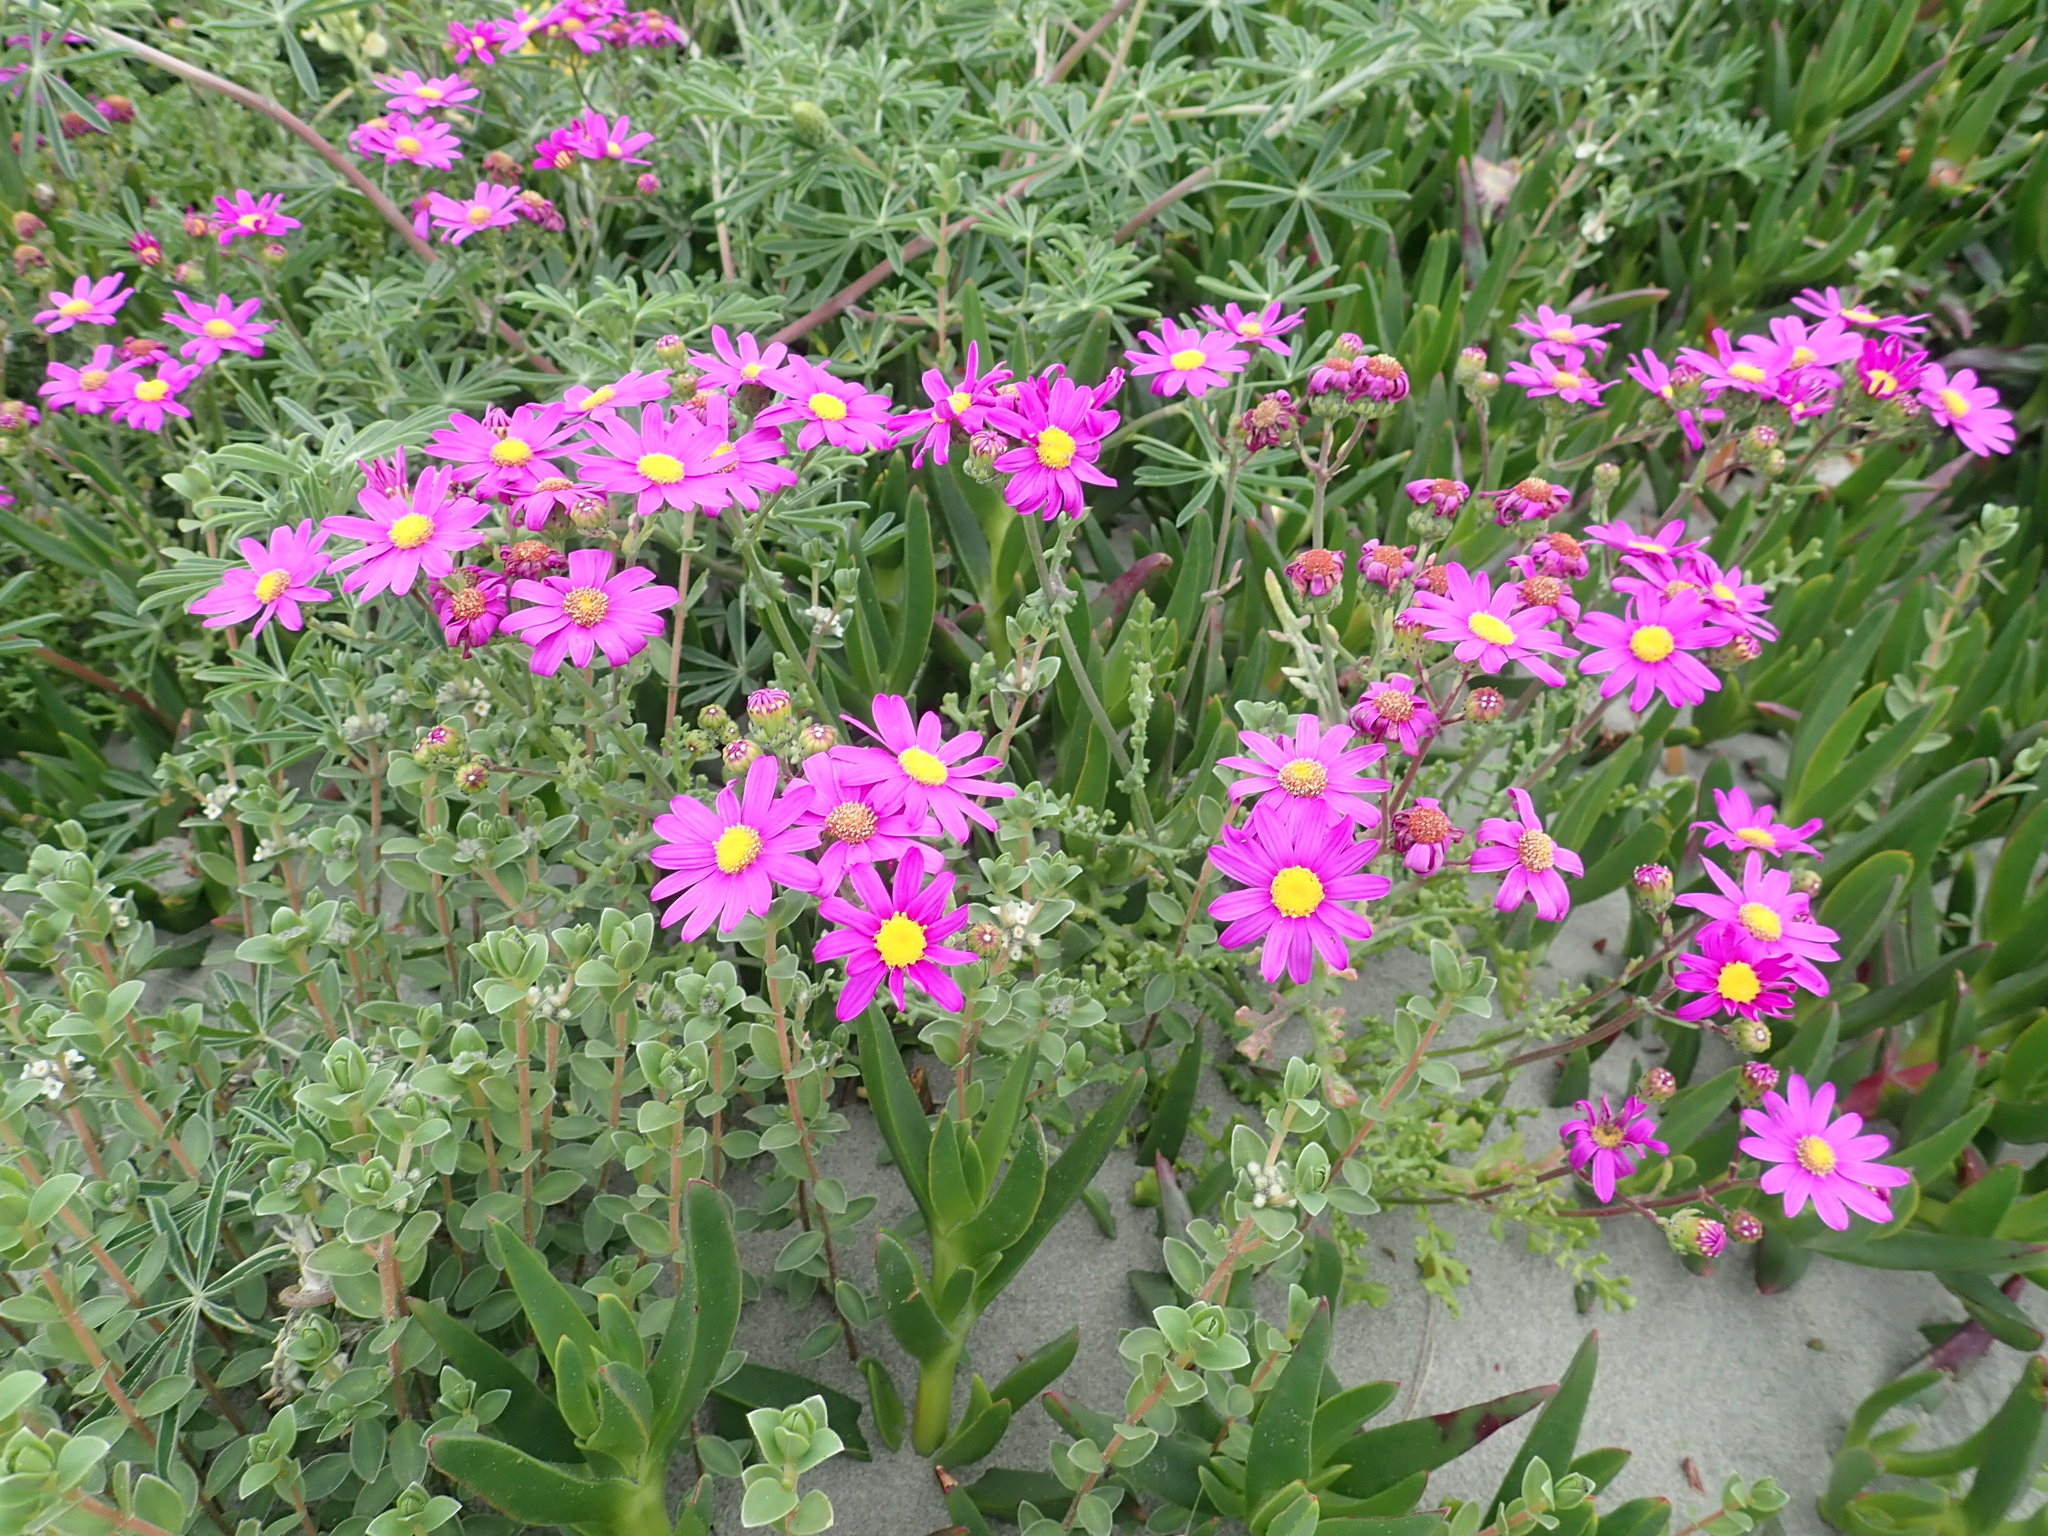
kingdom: Plantae
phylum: Tracheophyta
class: Magnoliopsida
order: Asterales
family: Asteraceae
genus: Senecio
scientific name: Senecio elegans
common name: Purple groundsel
